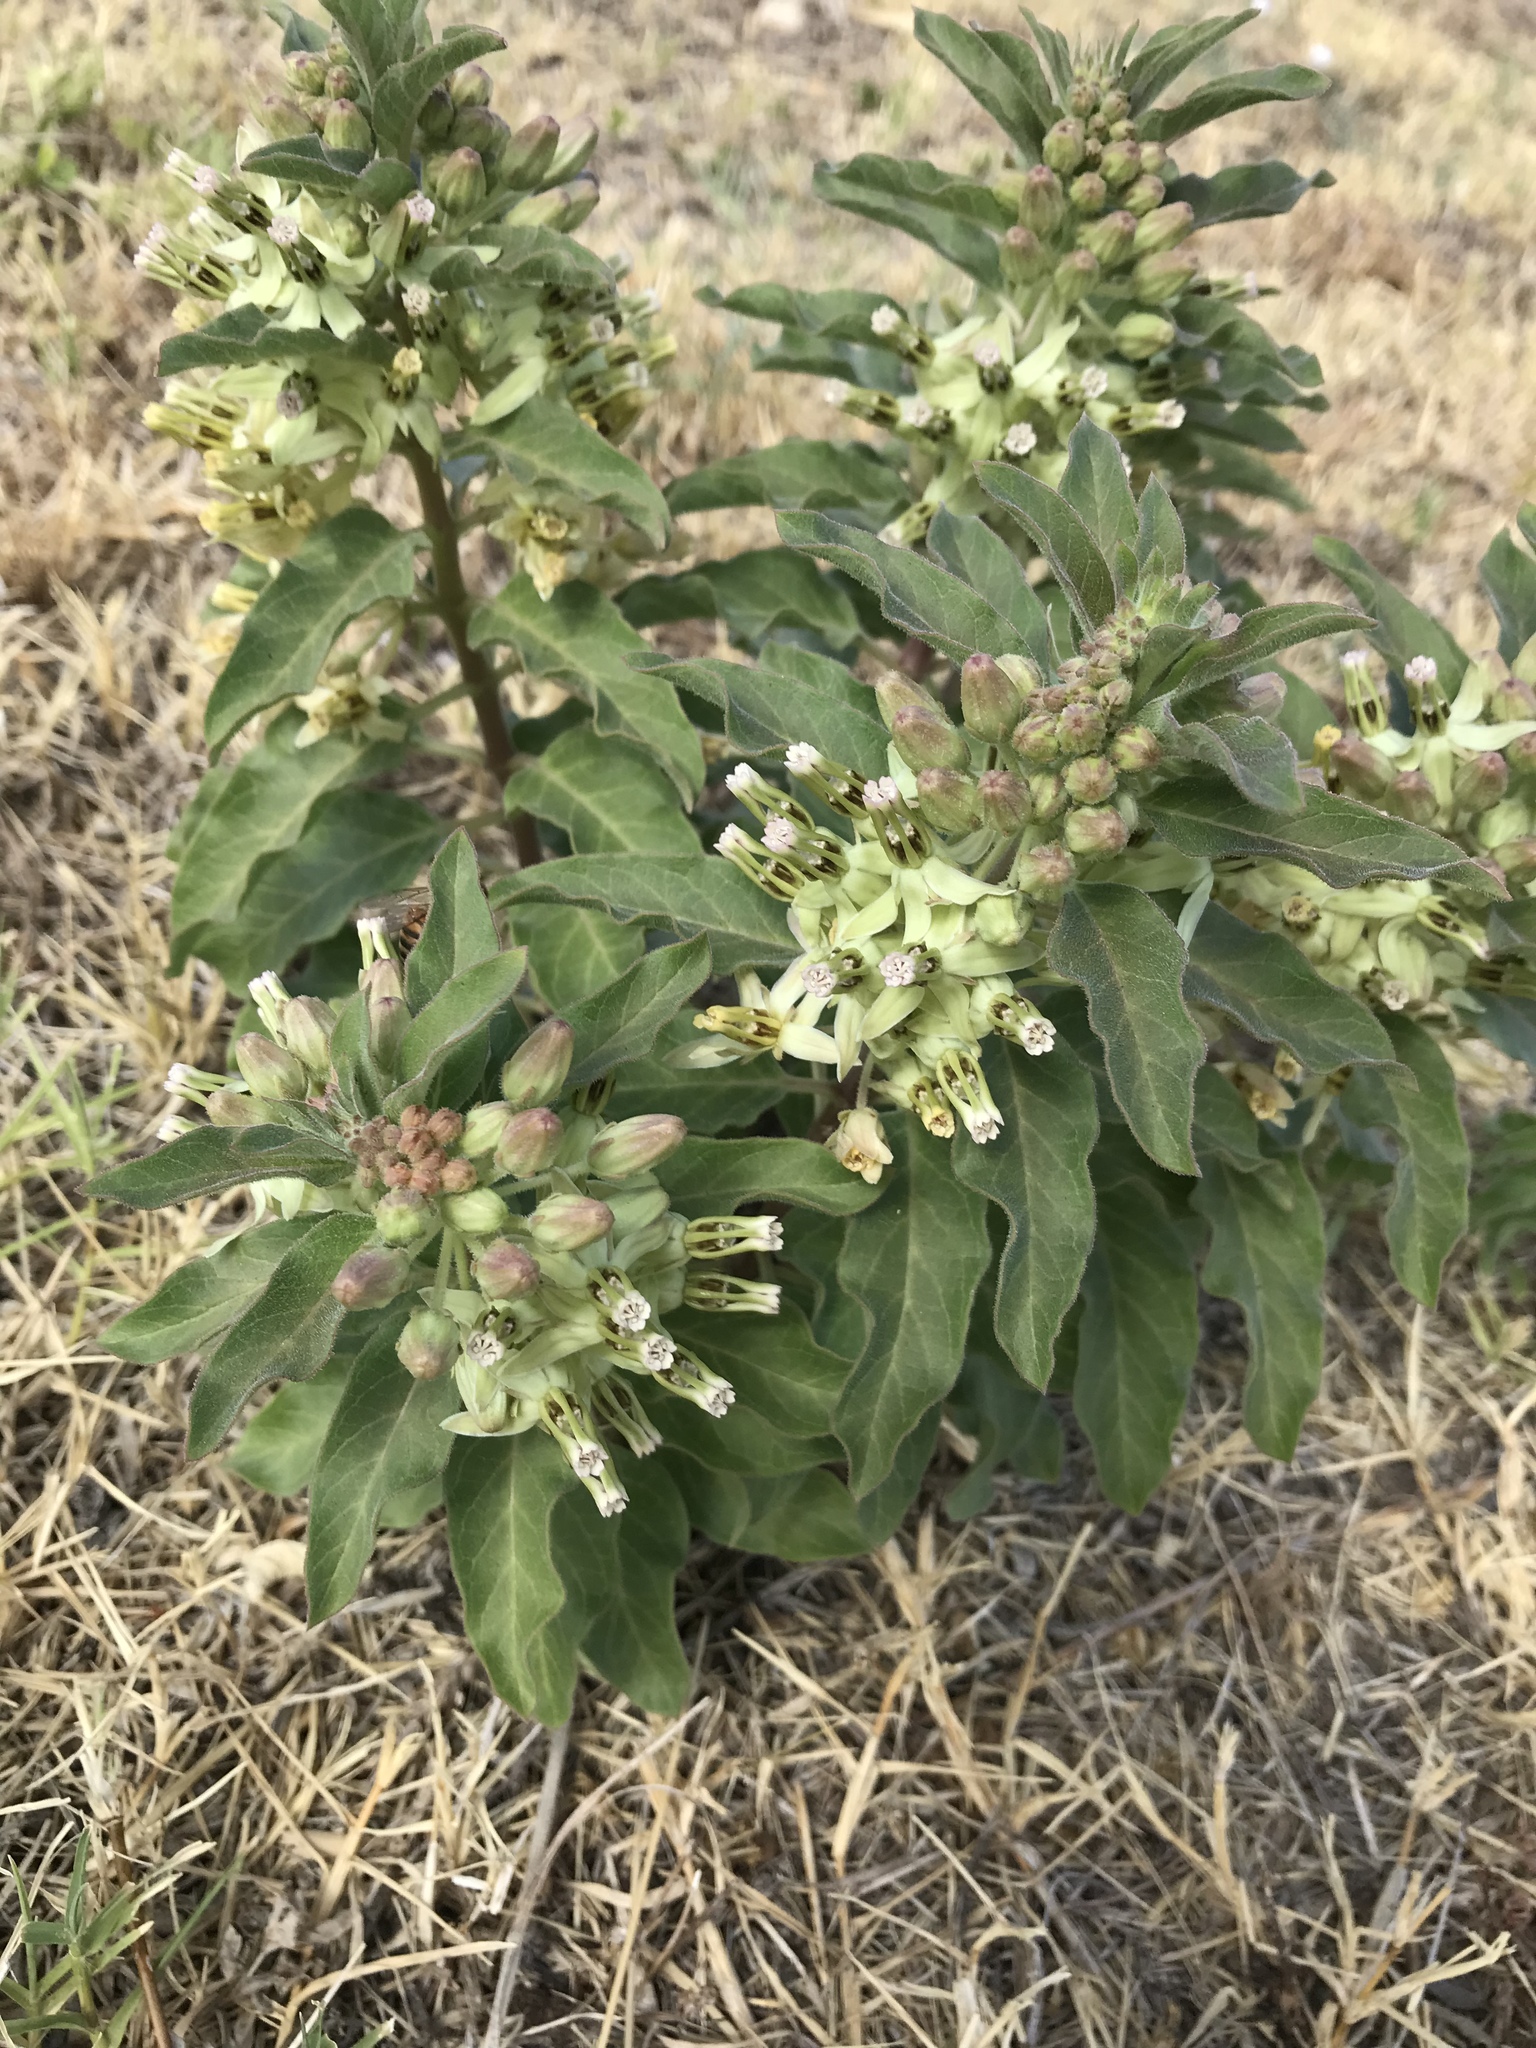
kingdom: Plantae
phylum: Tracheophyta
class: Magnoliopsida
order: Gentianales
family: Apocynaceae
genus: Asclepias
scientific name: Asclepias oenotheroides
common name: Zizotes milkweed
